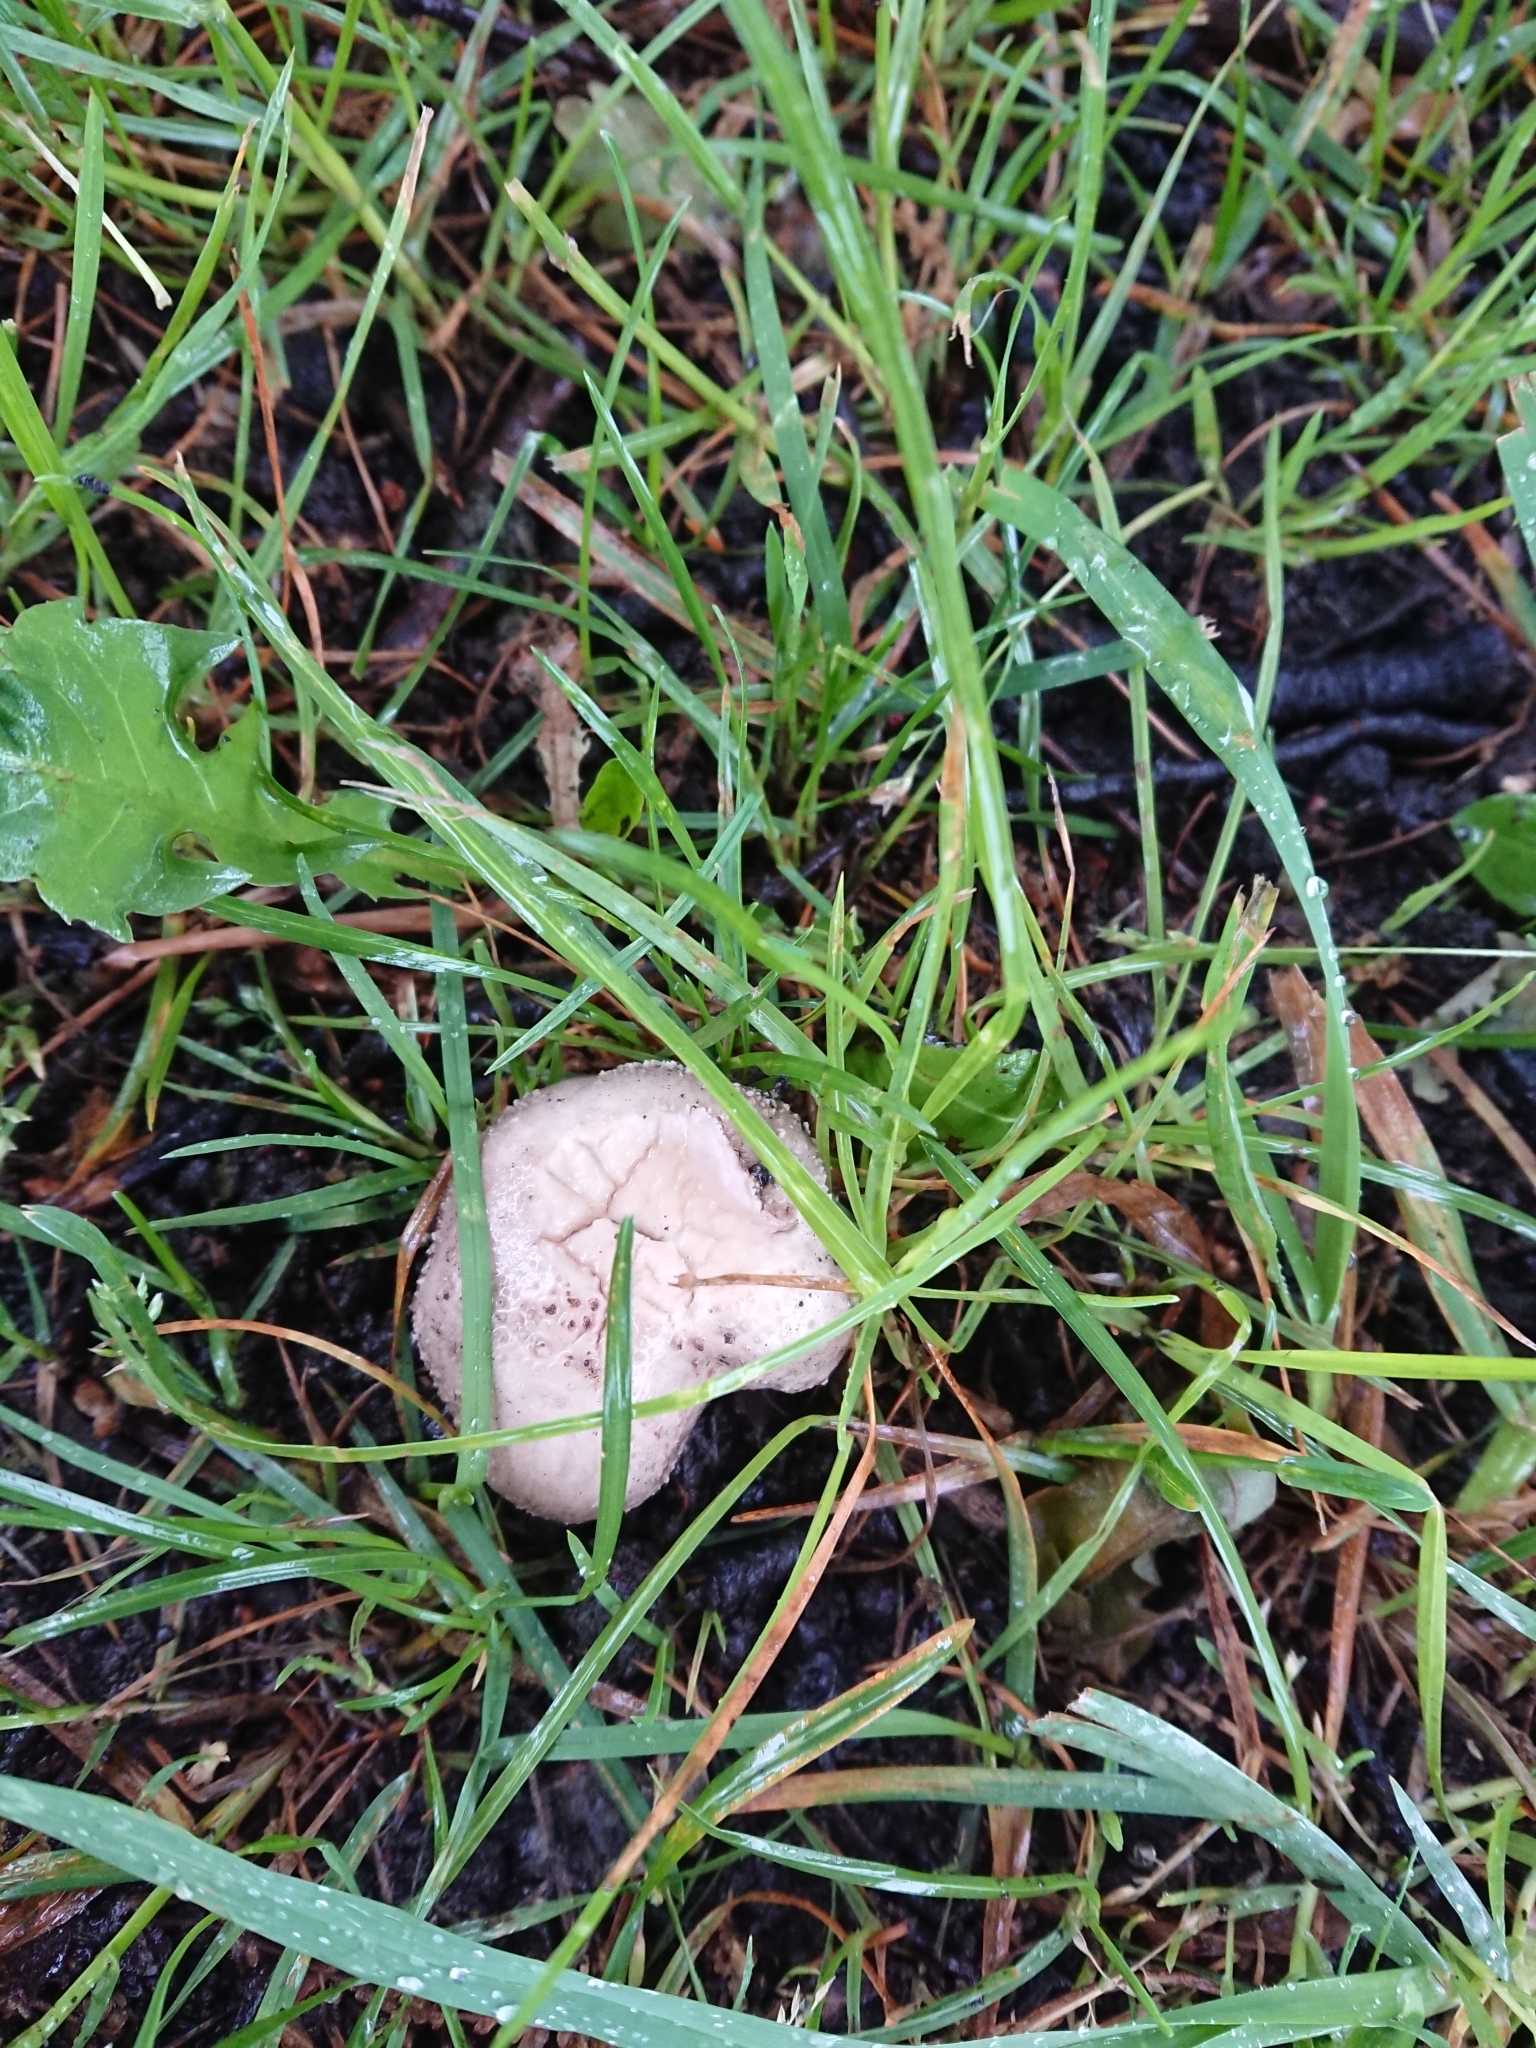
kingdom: Fungi
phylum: Basidiomycota
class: Agaricomycetes
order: Agaricales
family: Amanitaceae
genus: Amanita
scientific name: Amanita excelsa
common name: European false blusher
